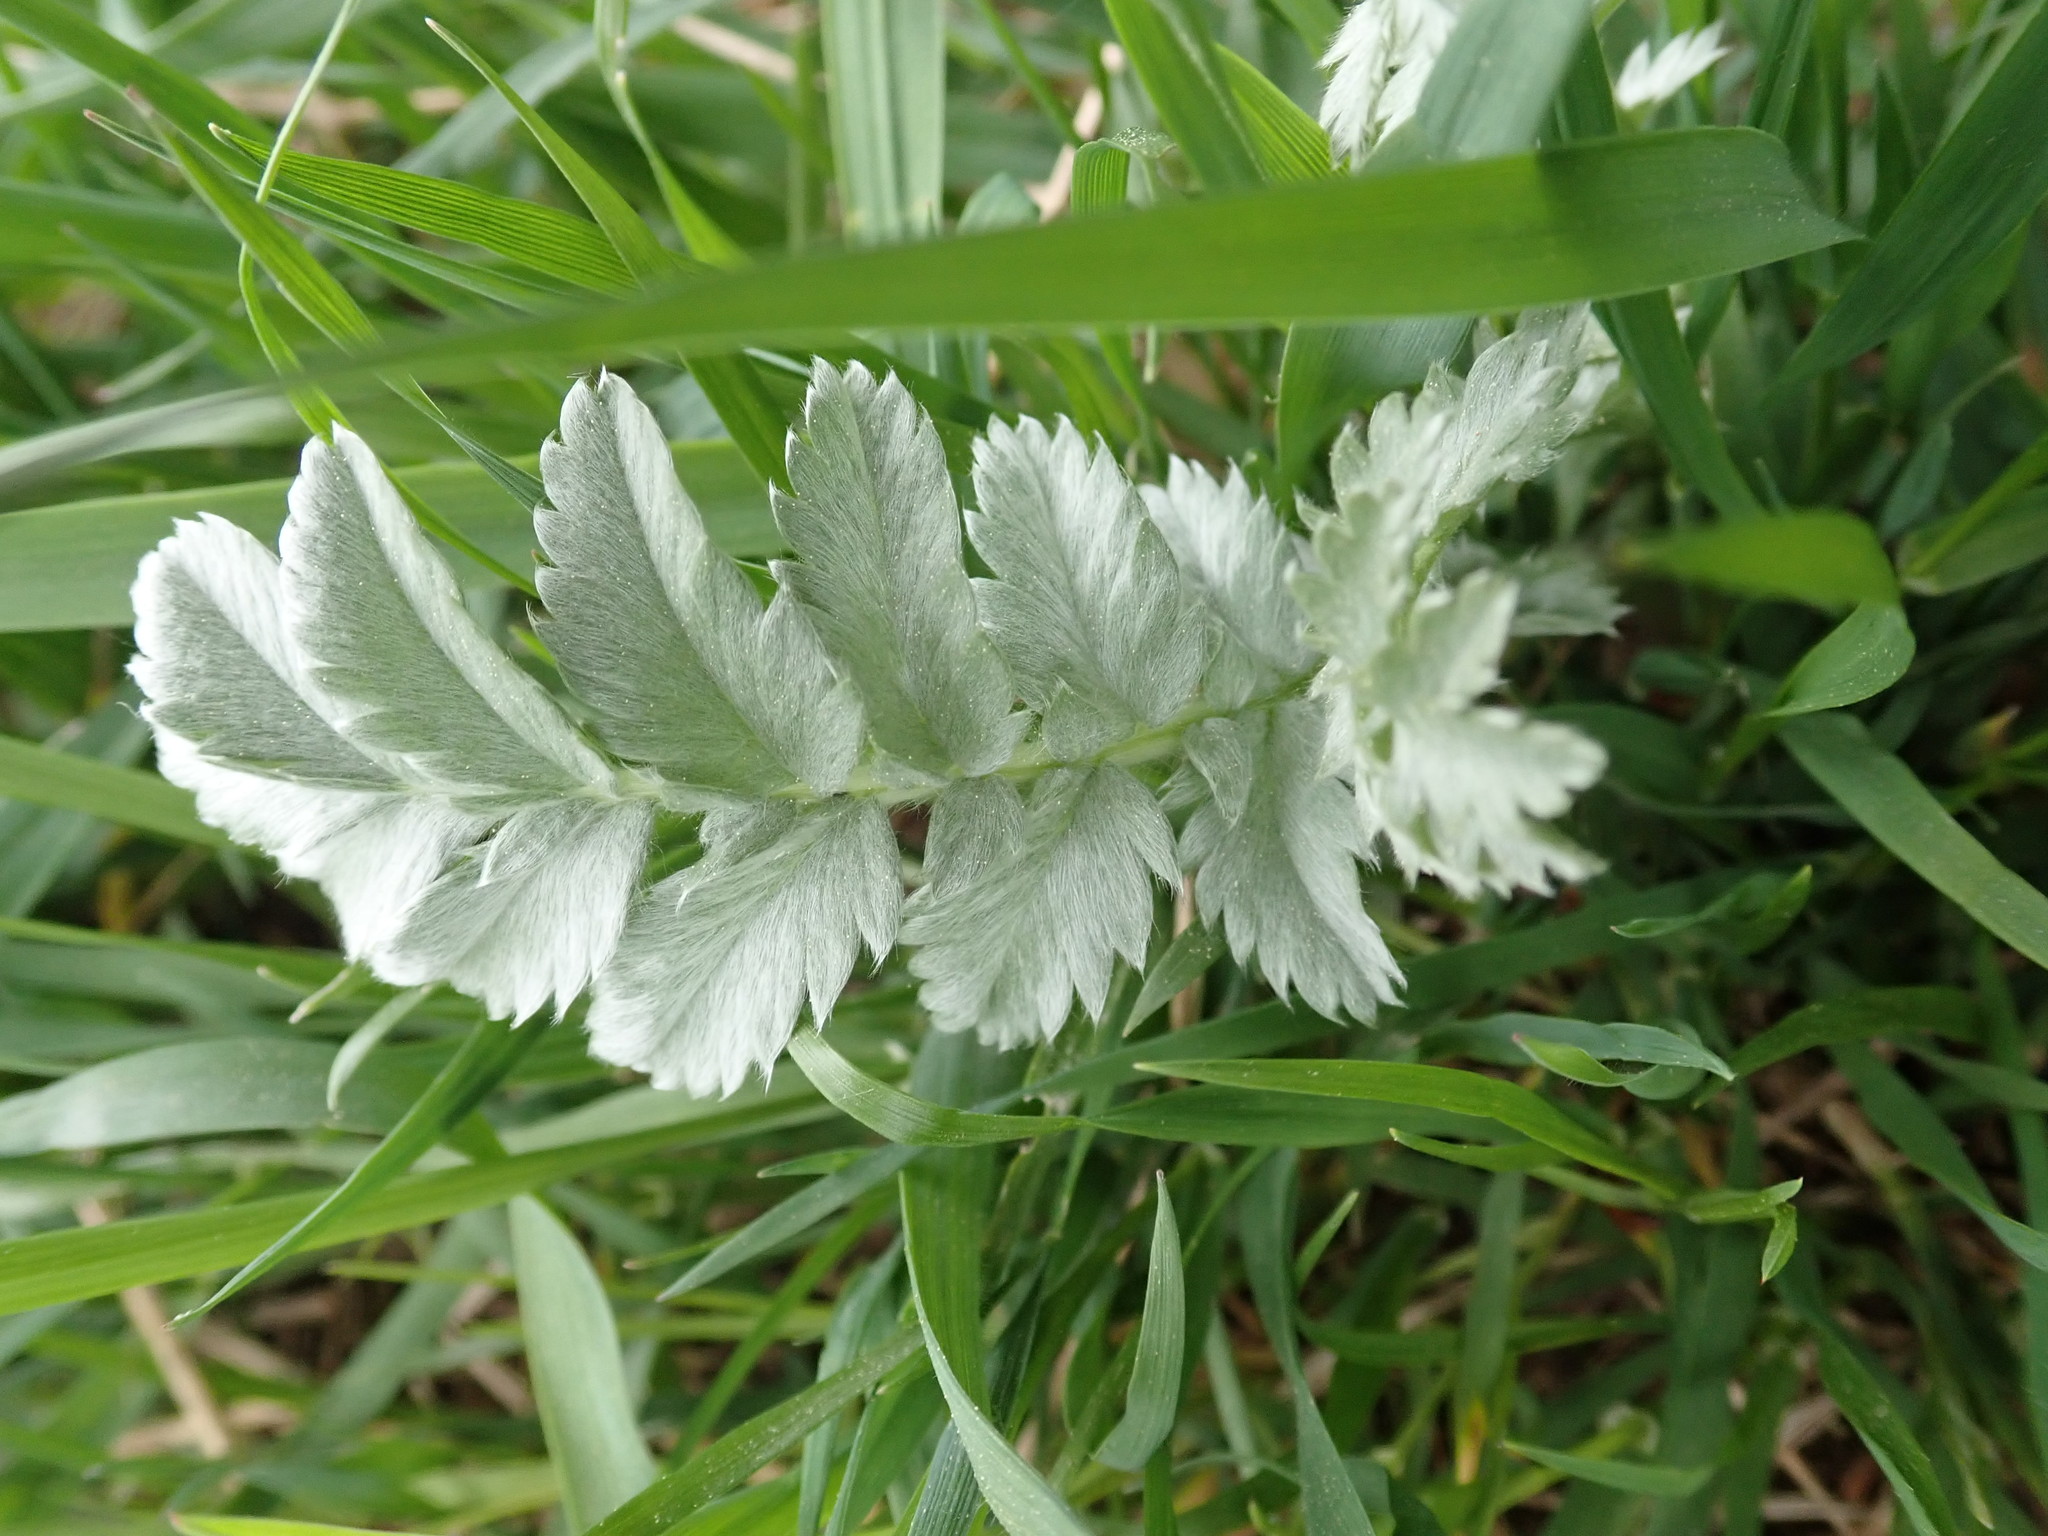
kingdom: Plantae
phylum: Tracheophyta
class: Magnoliopsida
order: Rosales
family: Rosaceae
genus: Argentina
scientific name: Argentina anserina
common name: Common silverweed
